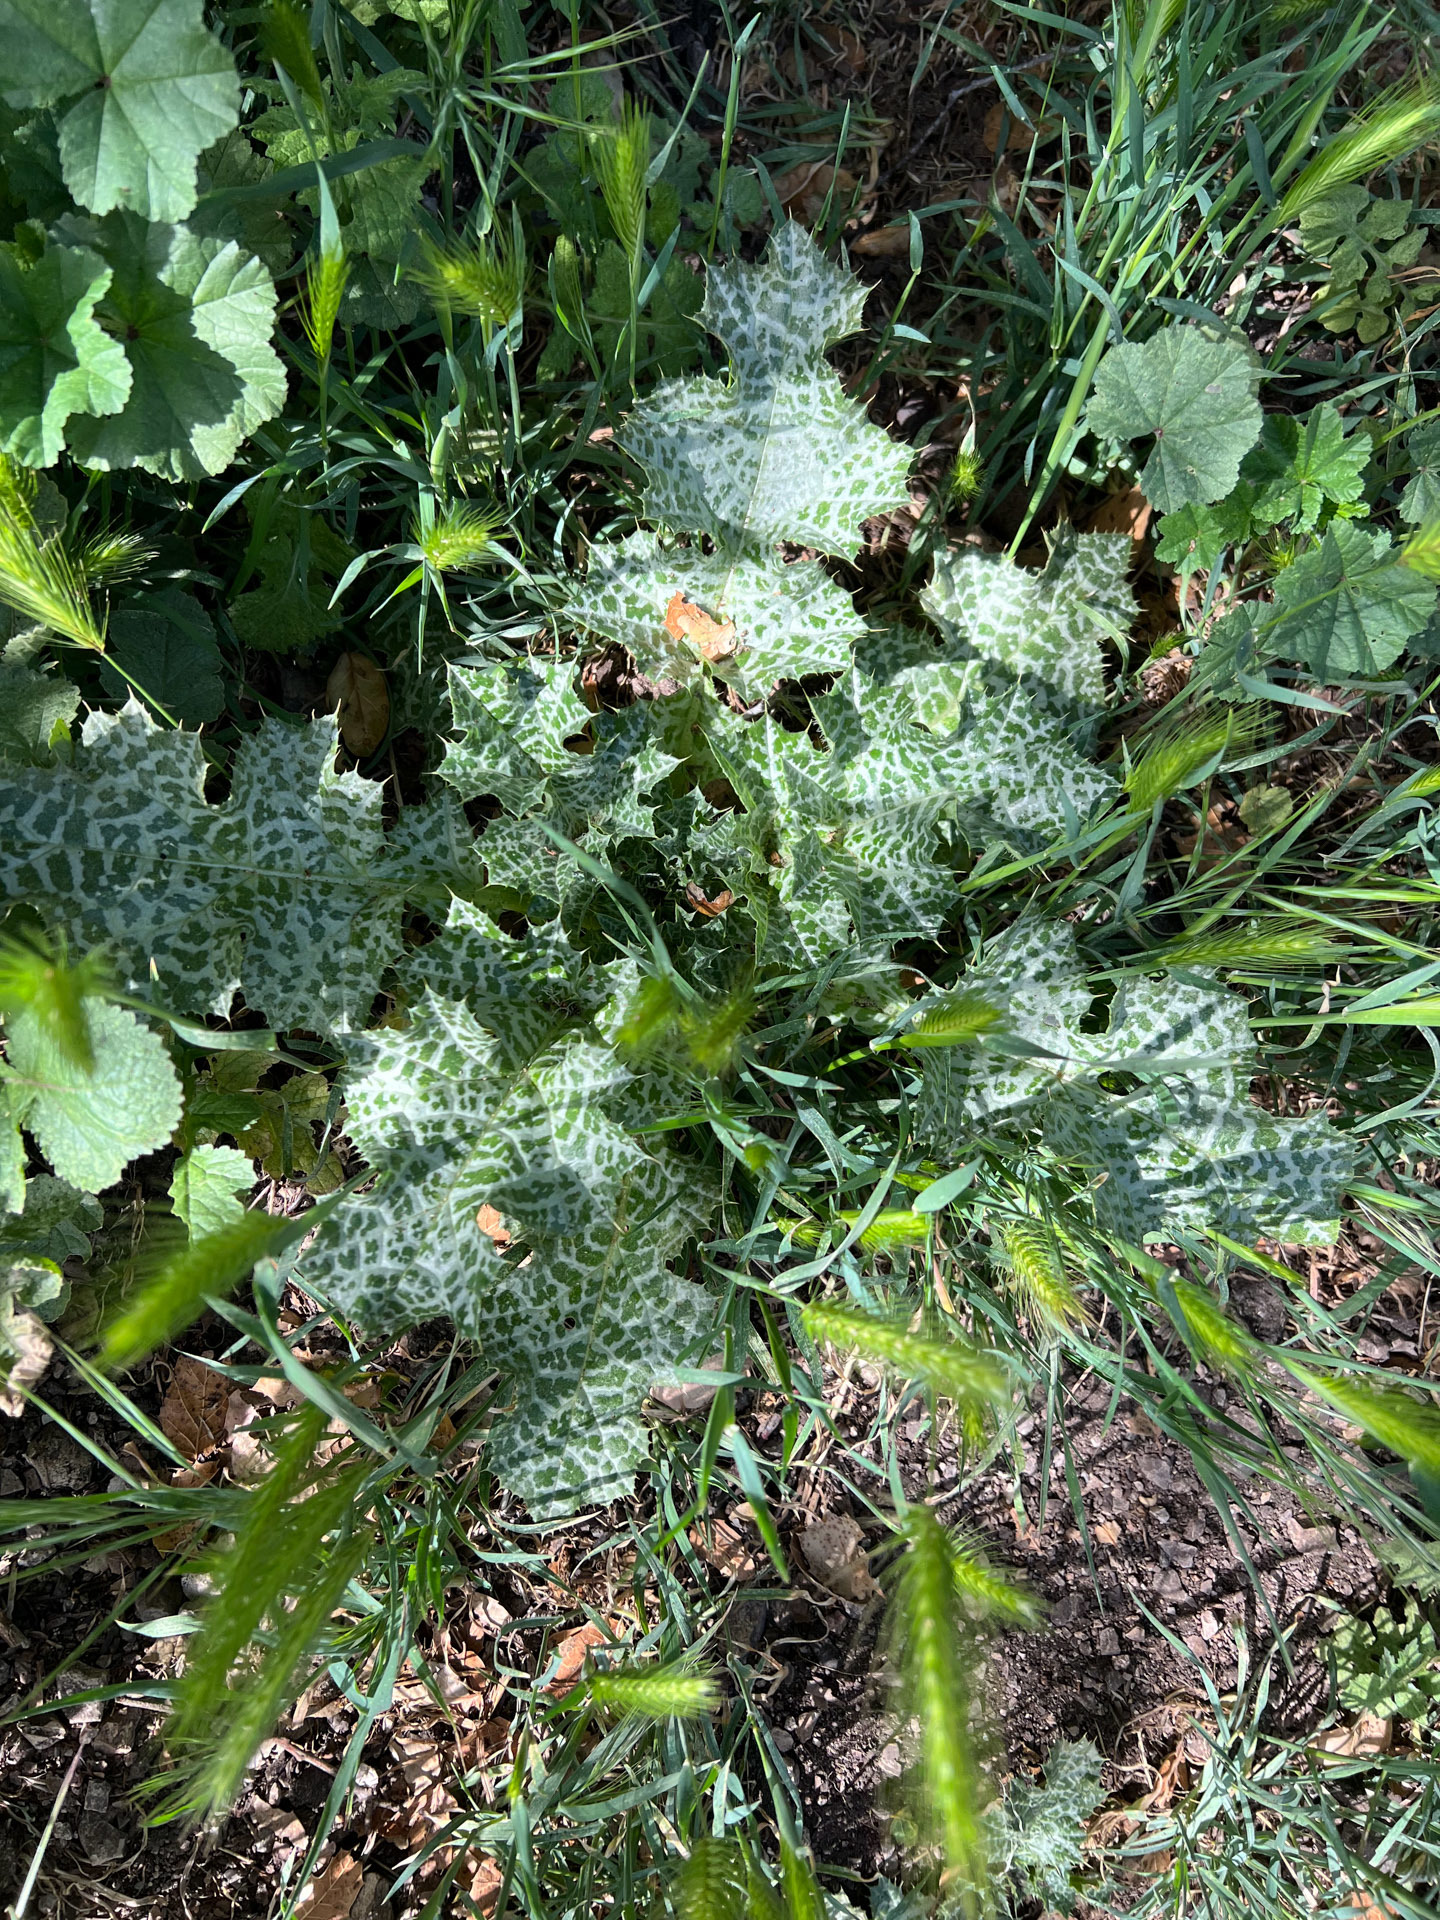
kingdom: Plantae
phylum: Tracheophyta
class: Magnoliopsida
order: Asterales
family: Asteraceae
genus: Silybum
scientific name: Silybum marianum
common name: Milk thistle
